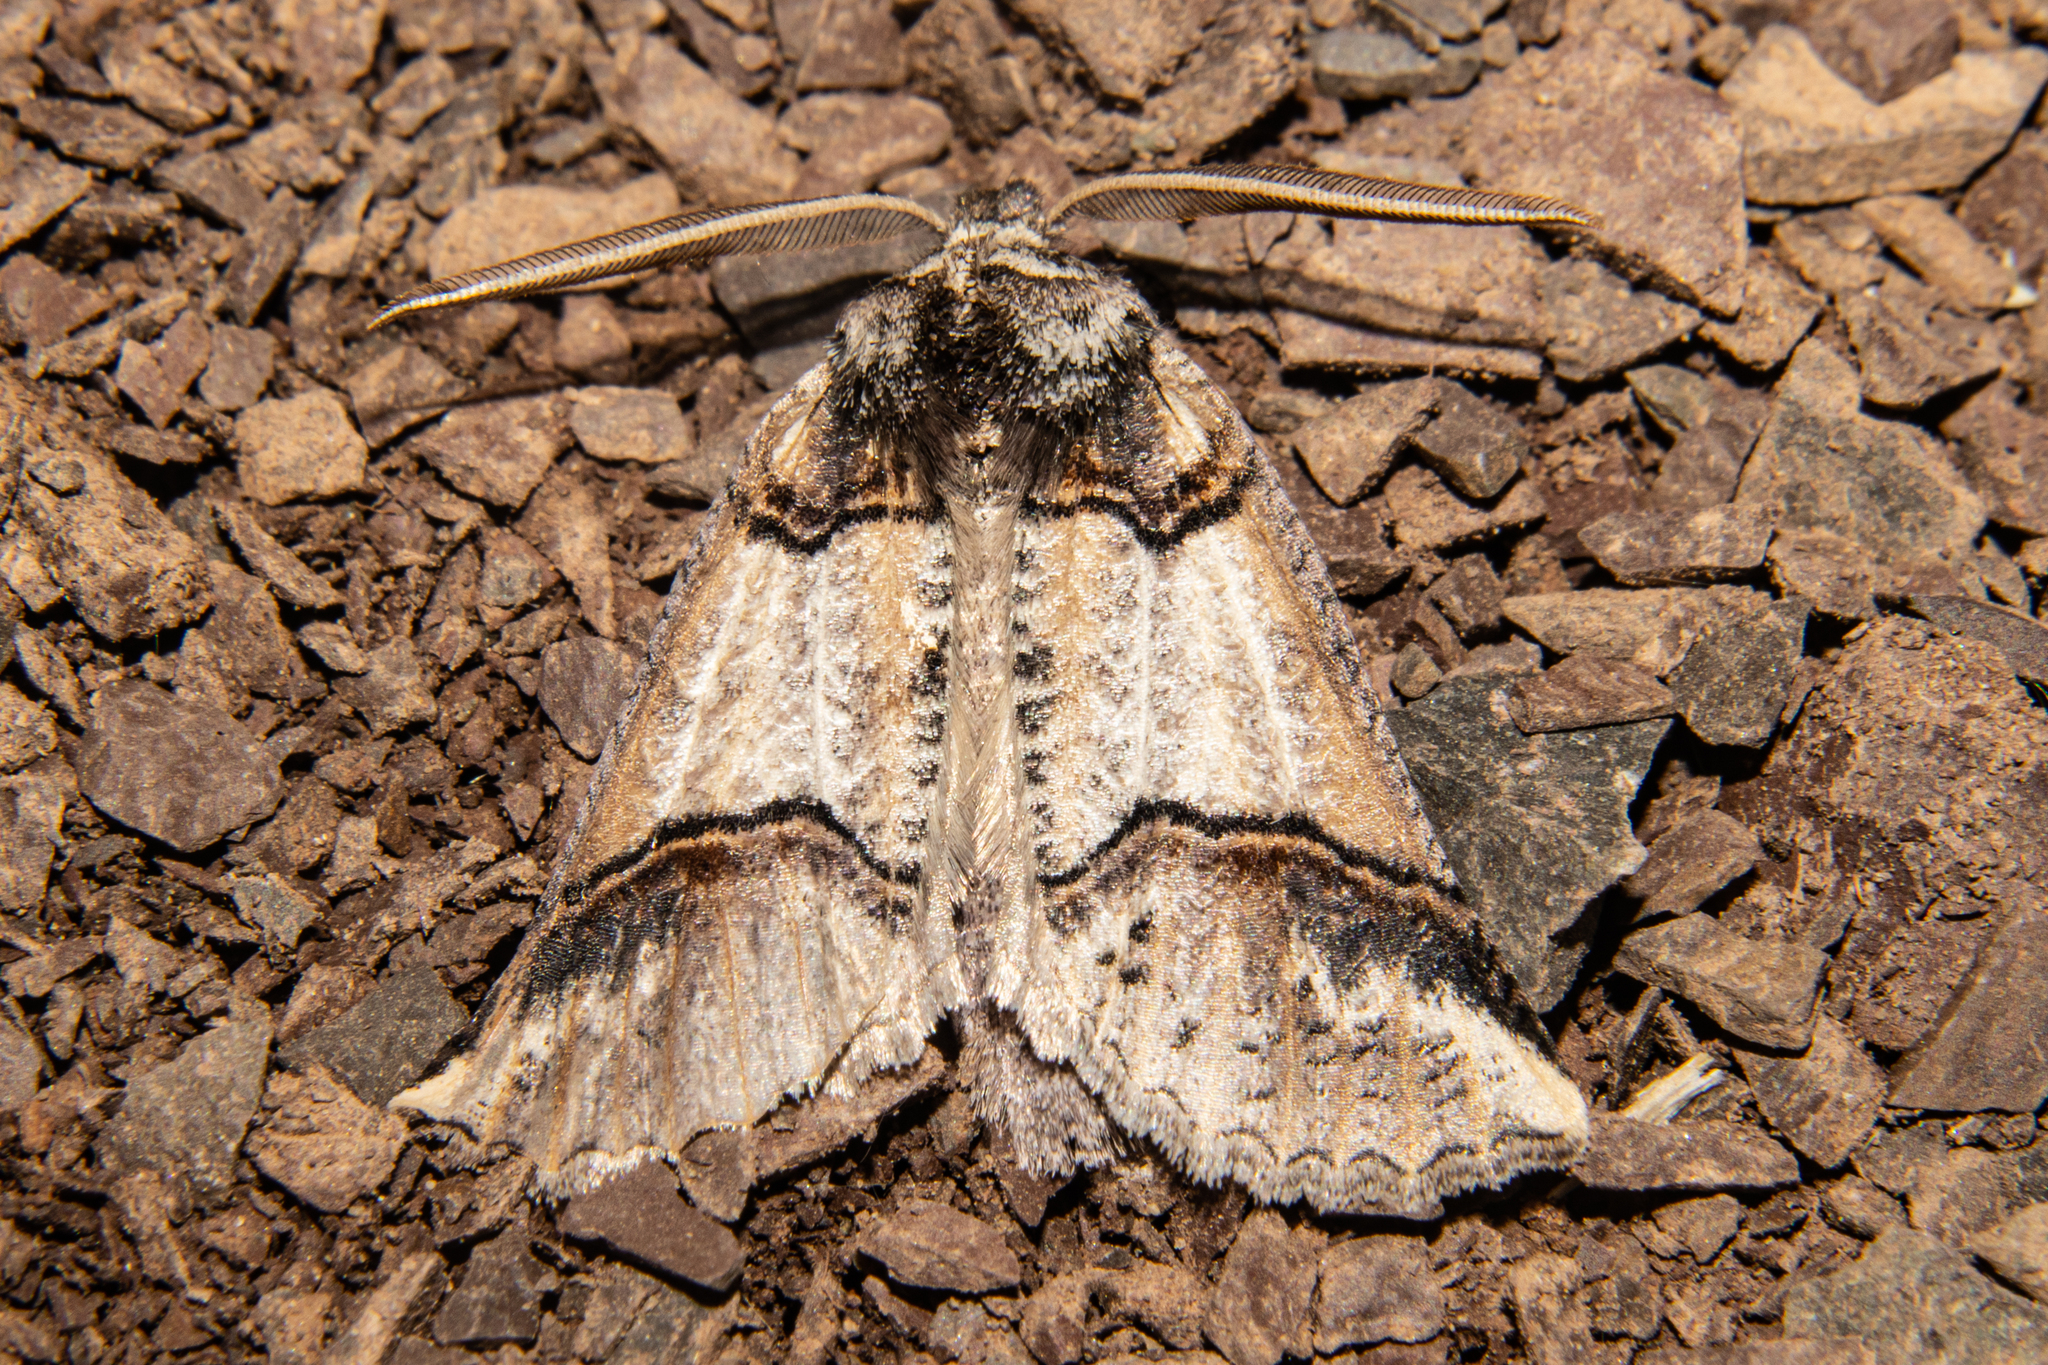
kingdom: Animalia
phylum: Arthropoda
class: Insecta
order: Lepidoptera
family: Geometridae
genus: Declana
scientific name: Declana
